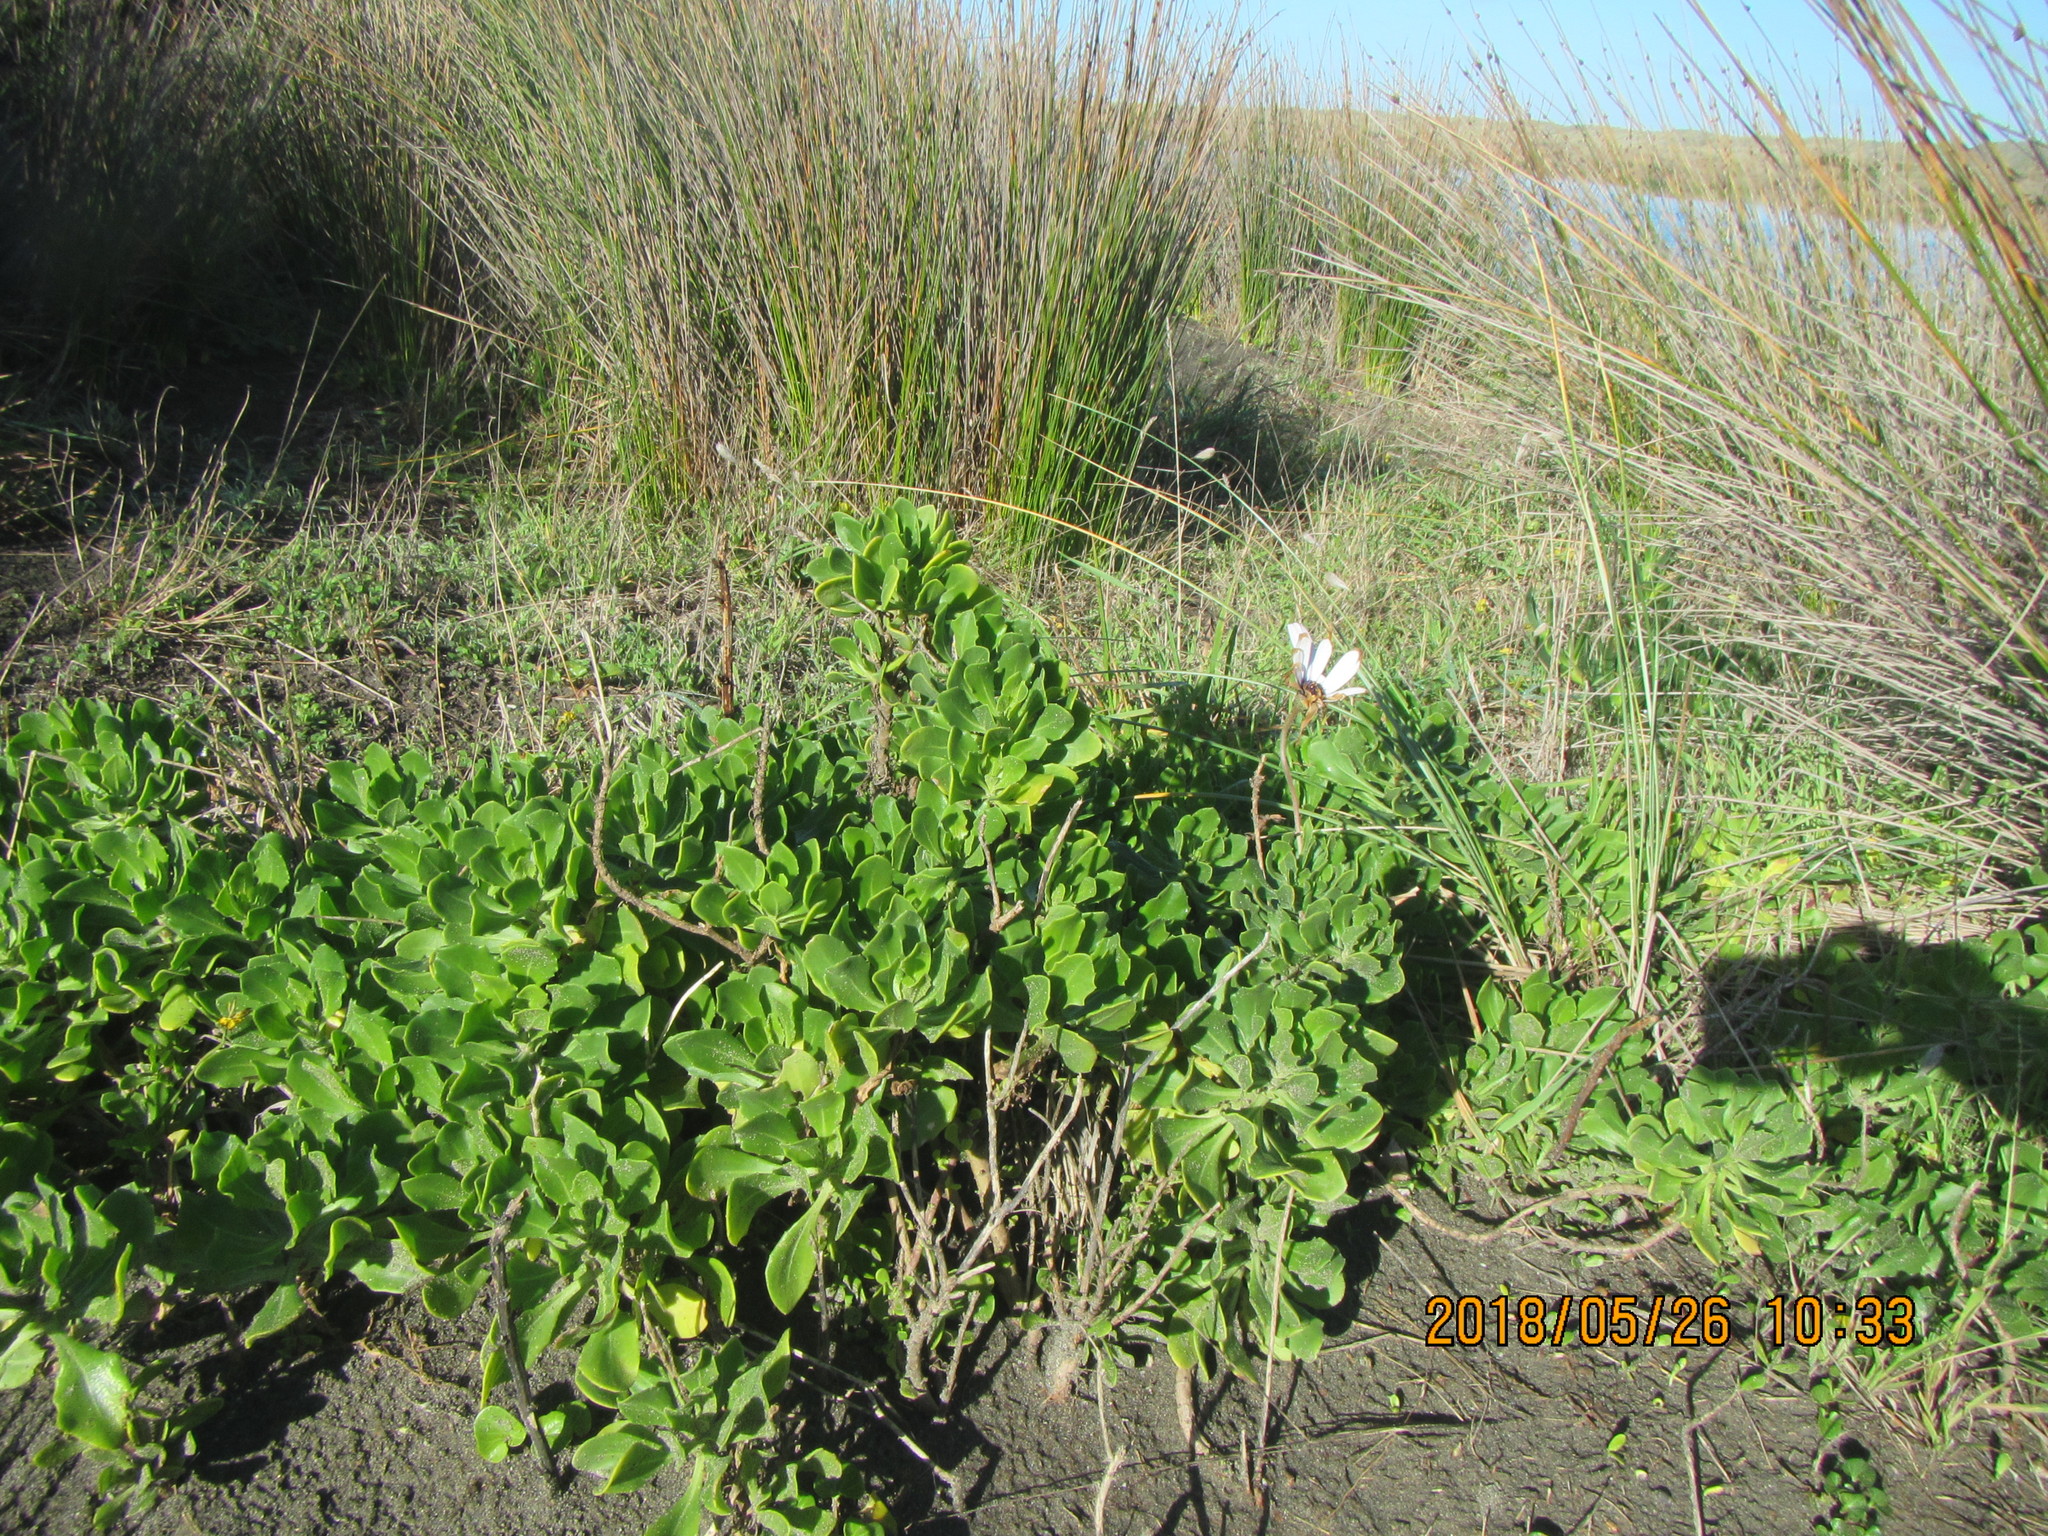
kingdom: Plantae
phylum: Tracheophyta
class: Magnoliopsida
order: Asterales
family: Asteraceae
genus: Dimorphotheca
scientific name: Dimorphotheca fruticosa
